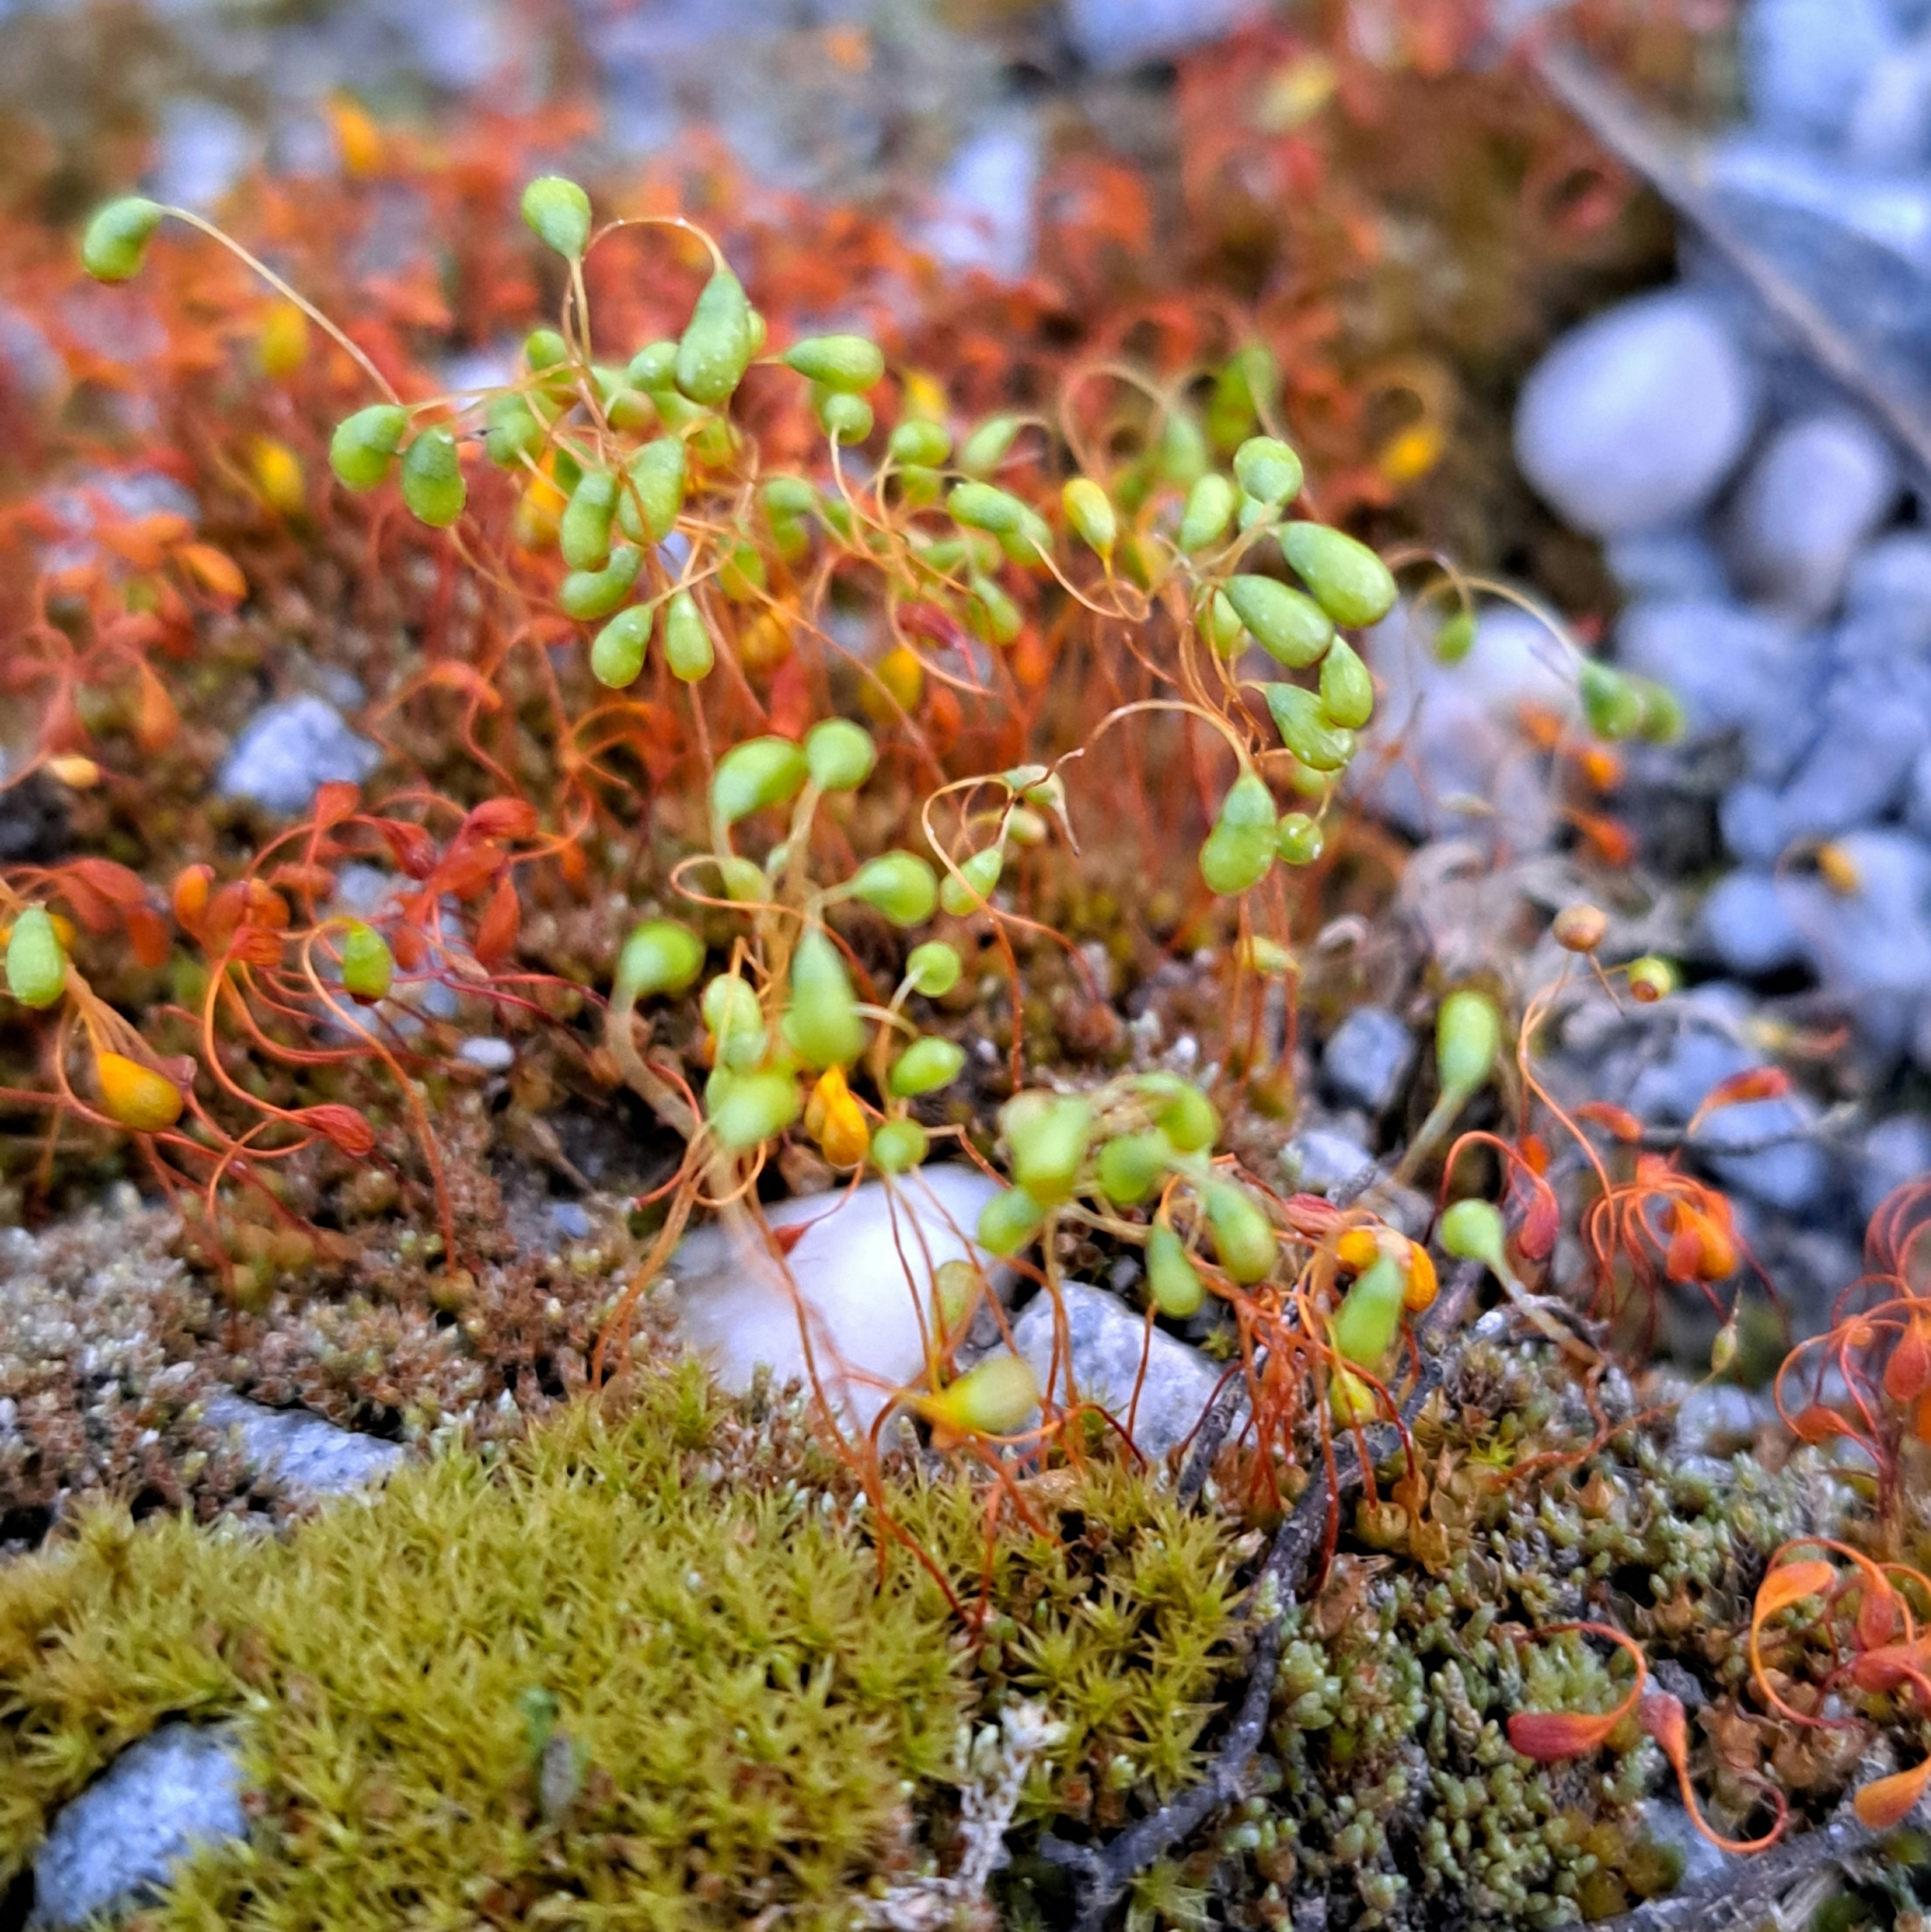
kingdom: Plantae
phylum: Bryophyta
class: Bryopsida
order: Funariales
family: Funariaceae
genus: Funaria
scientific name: Funaria hygrometrica
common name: Common cord moss
